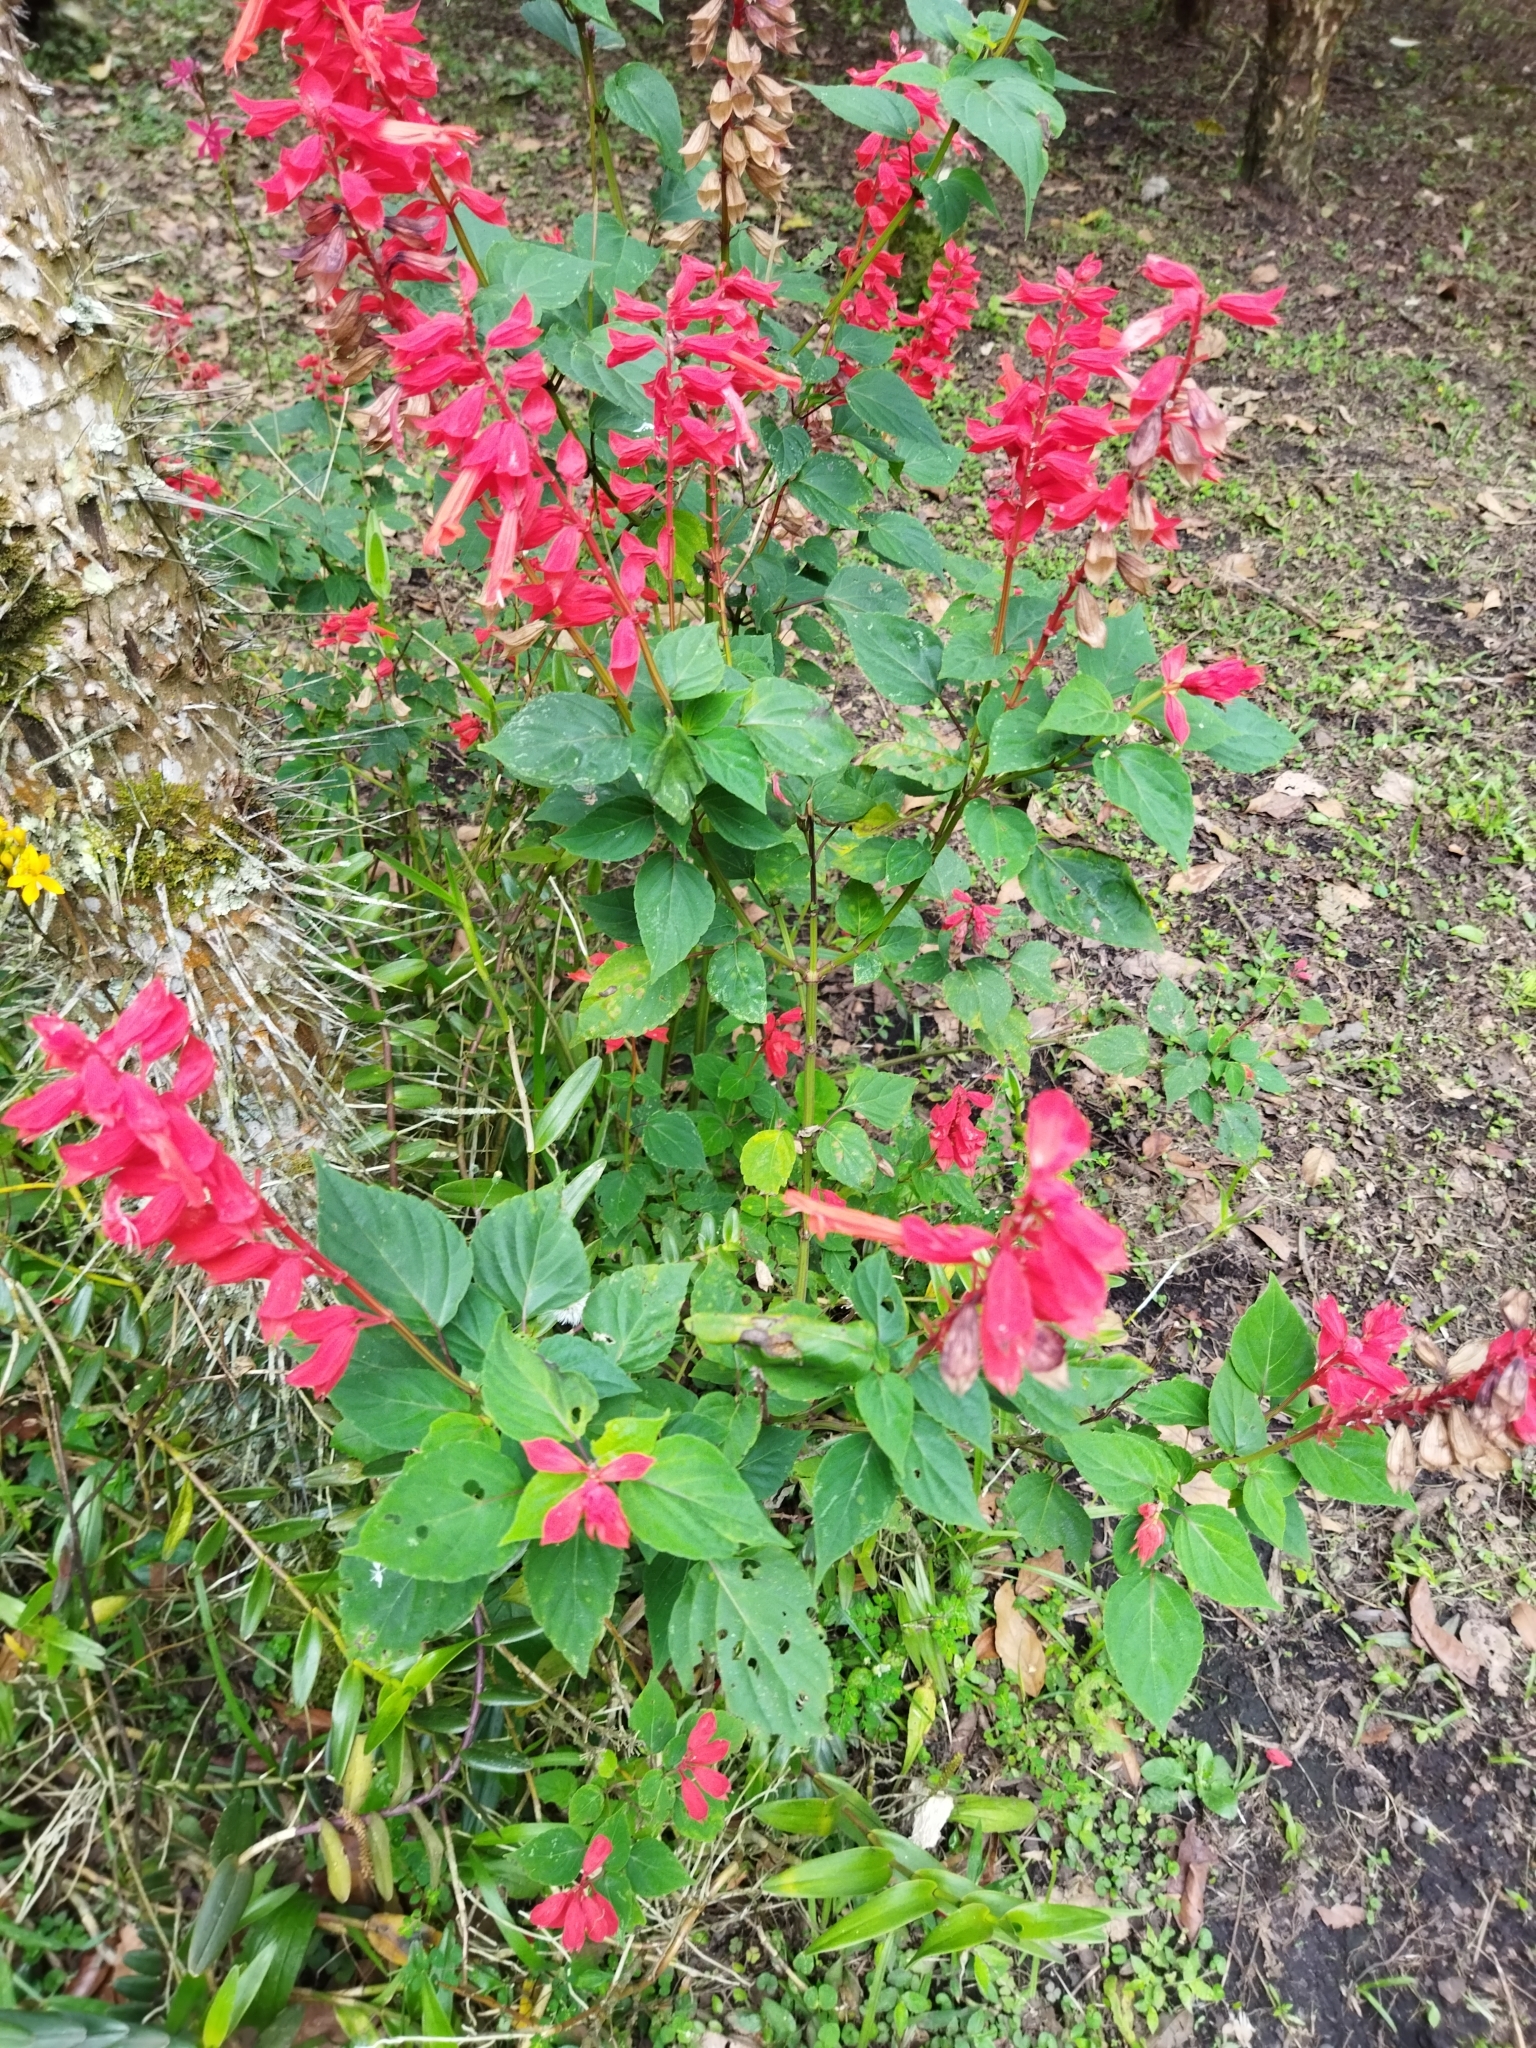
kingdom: Plantae
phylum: Tracheophyta
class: Magnoliopsida
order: Lamiales
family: Lamiaceae
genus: Salvia
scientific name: Salvia splendens
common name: Scarlet sage
